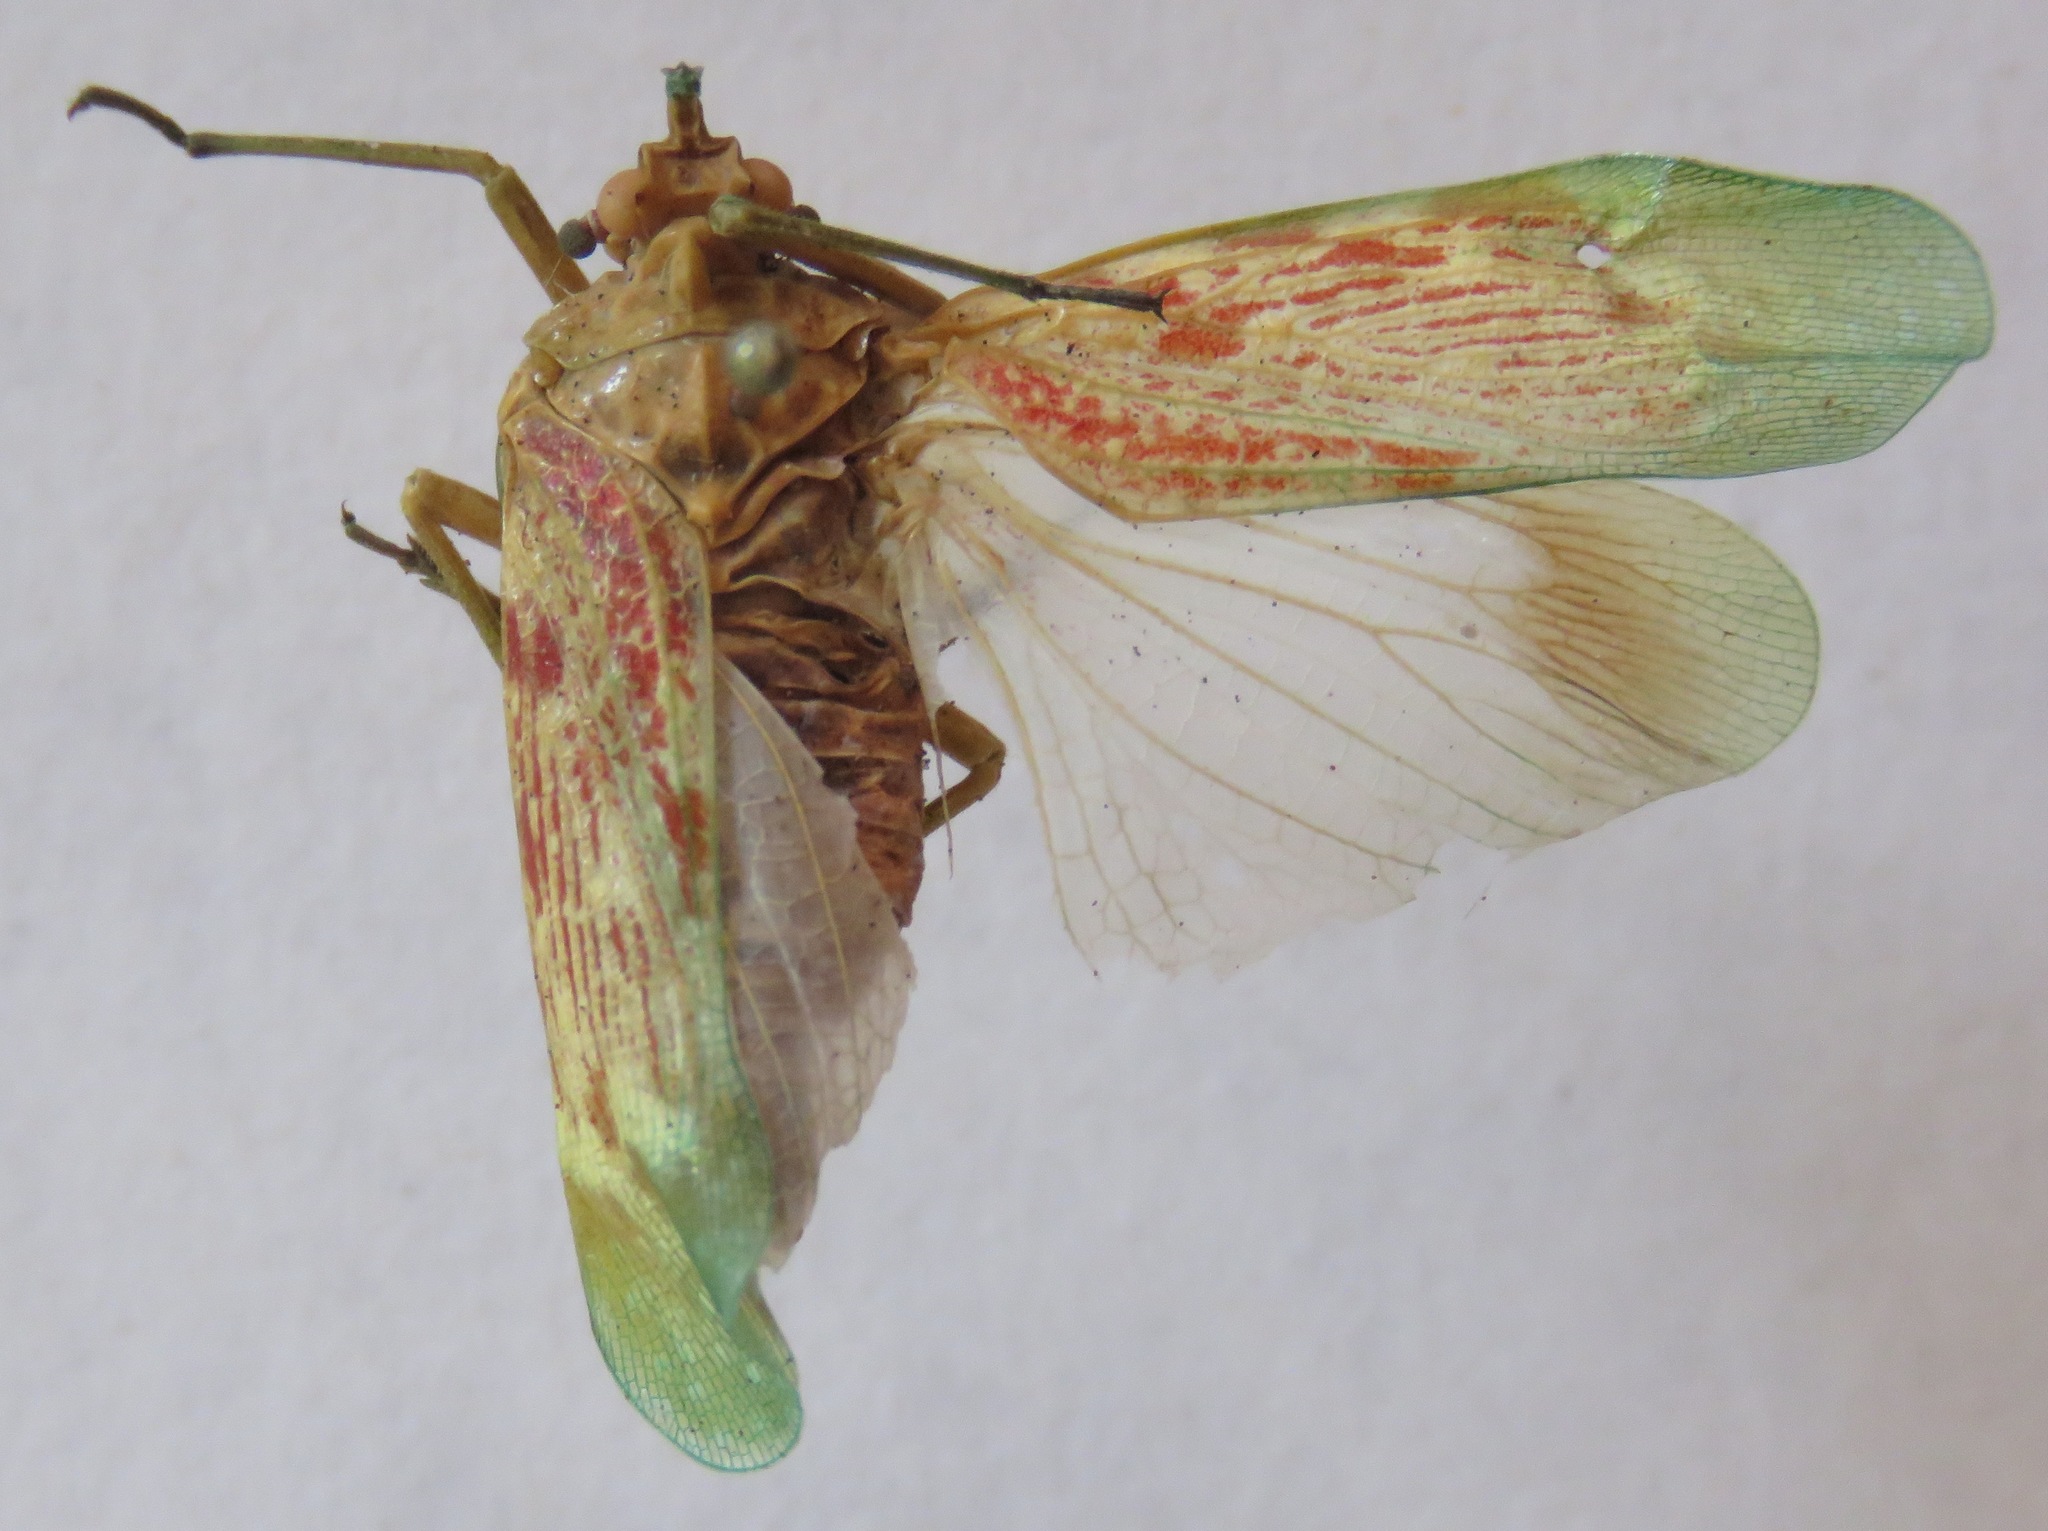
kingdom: Animalia
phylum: Arthropoda
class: Insecta
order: Hemiptera
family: Fulgoridae
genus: Enchophora
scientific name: Enchophora rosacea
